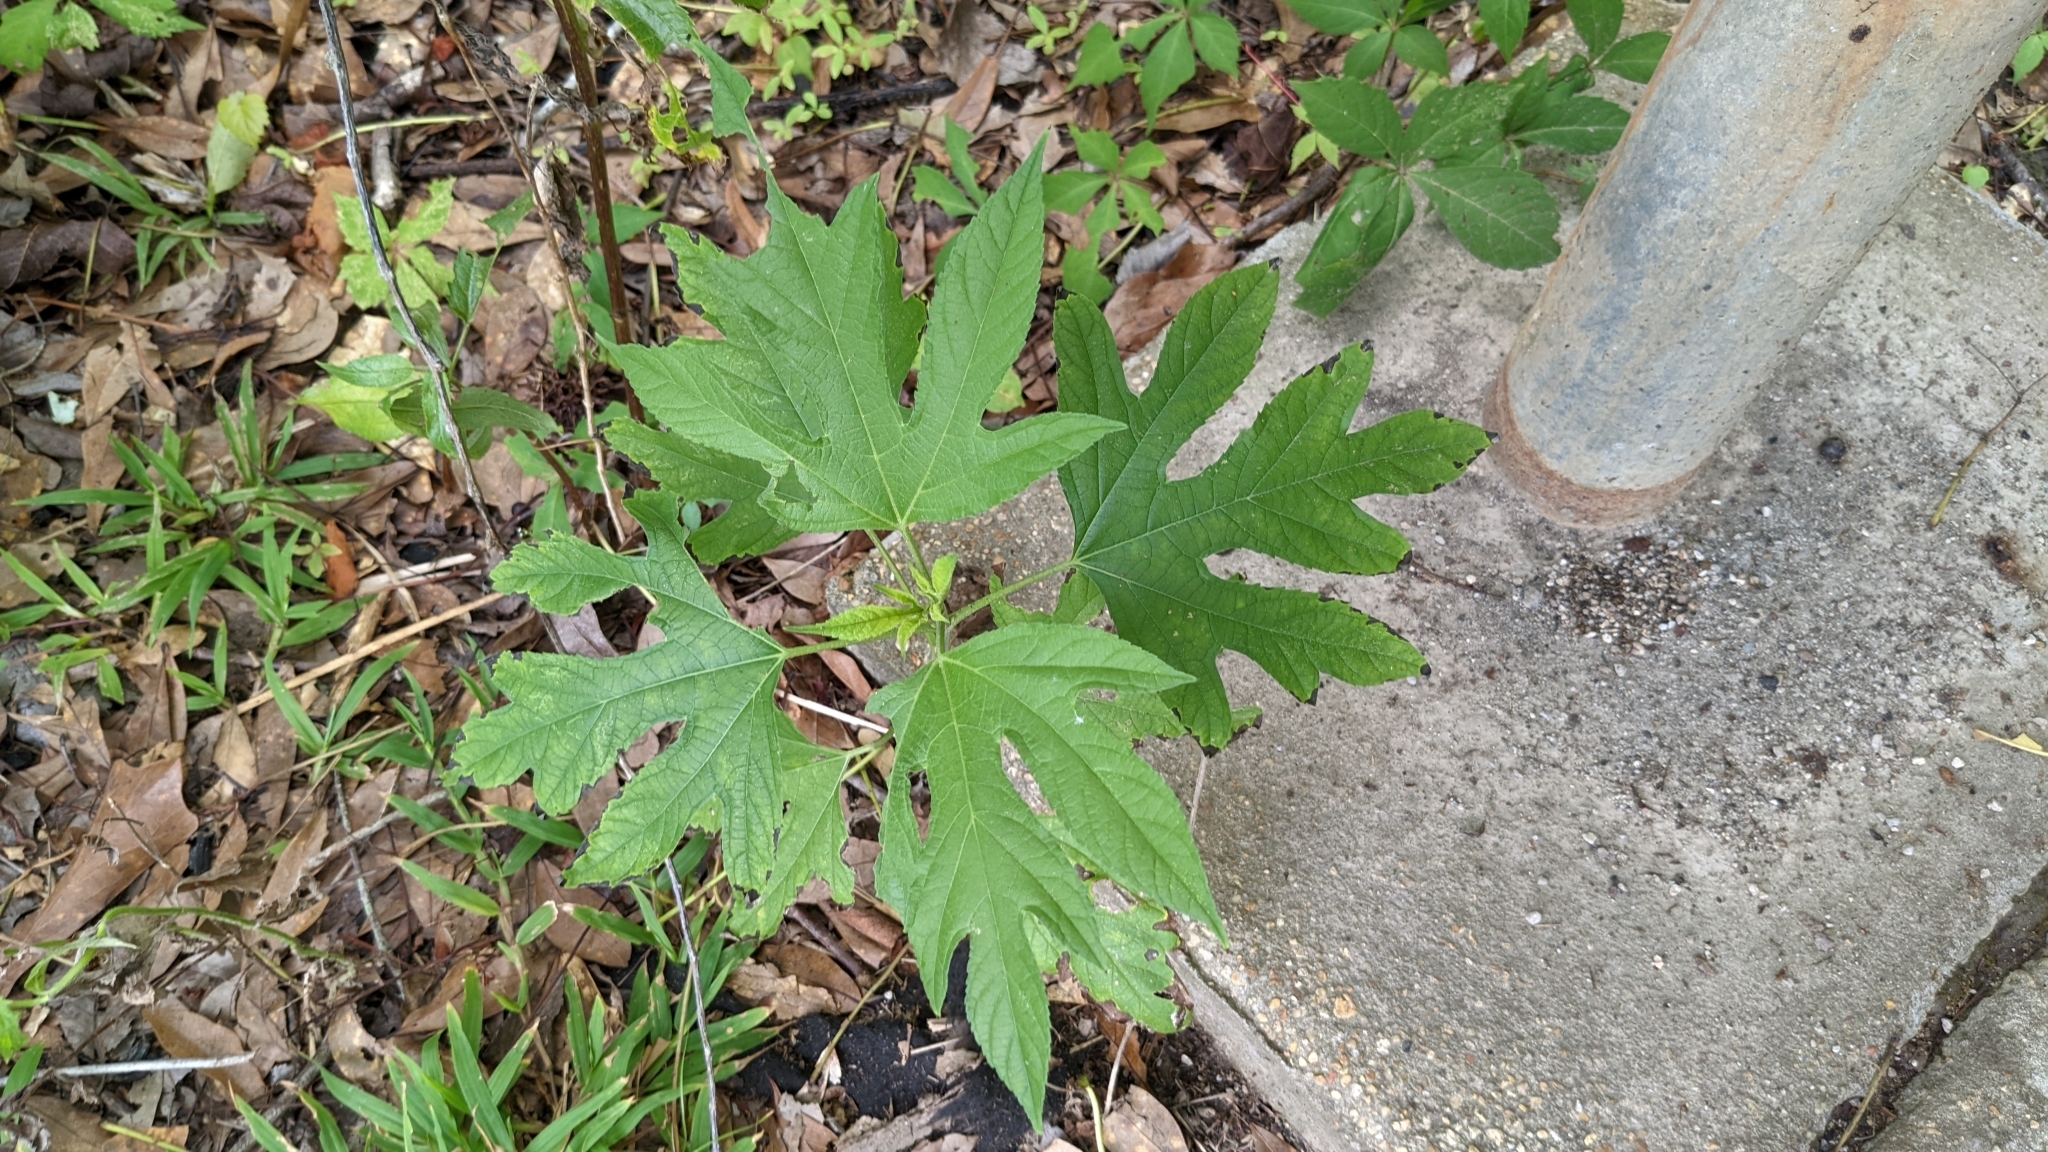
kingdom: Plantae
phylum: Tracheophyta
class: Magnoliopsida
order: Asterales
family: Asteraceae
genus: Ambrosia
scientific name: Ambrosia trifida
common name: Giant ragweed
